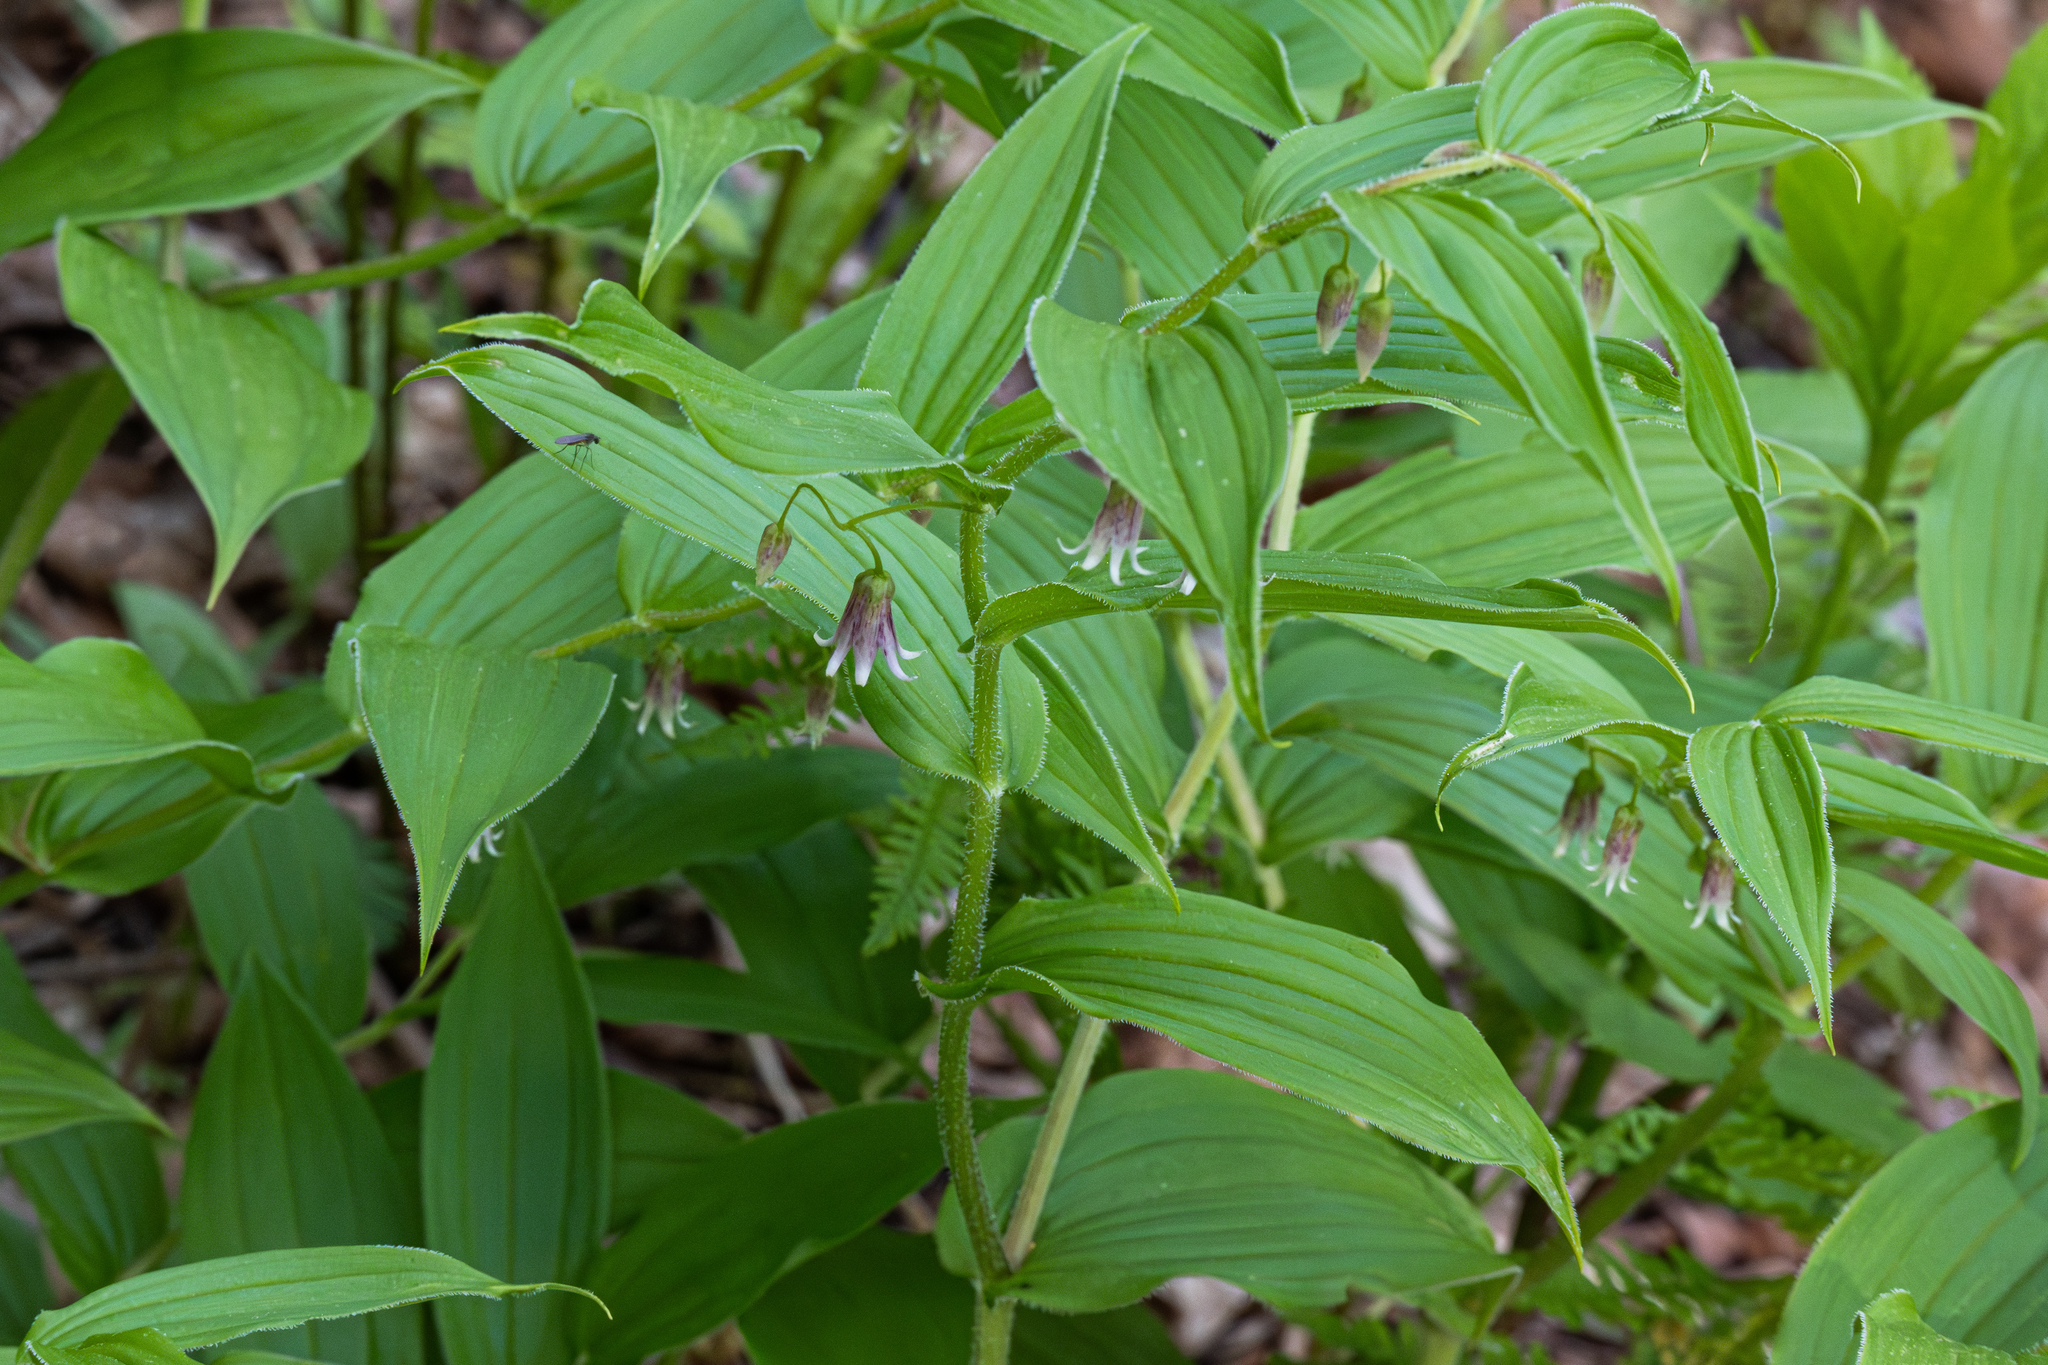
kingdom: Plantae
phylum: Tracheophyta
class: Liliopsida
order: Liliales
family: Liliaceae
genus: Streptopus
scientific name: Streptopus lanceolatus
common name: Rose mandarin
